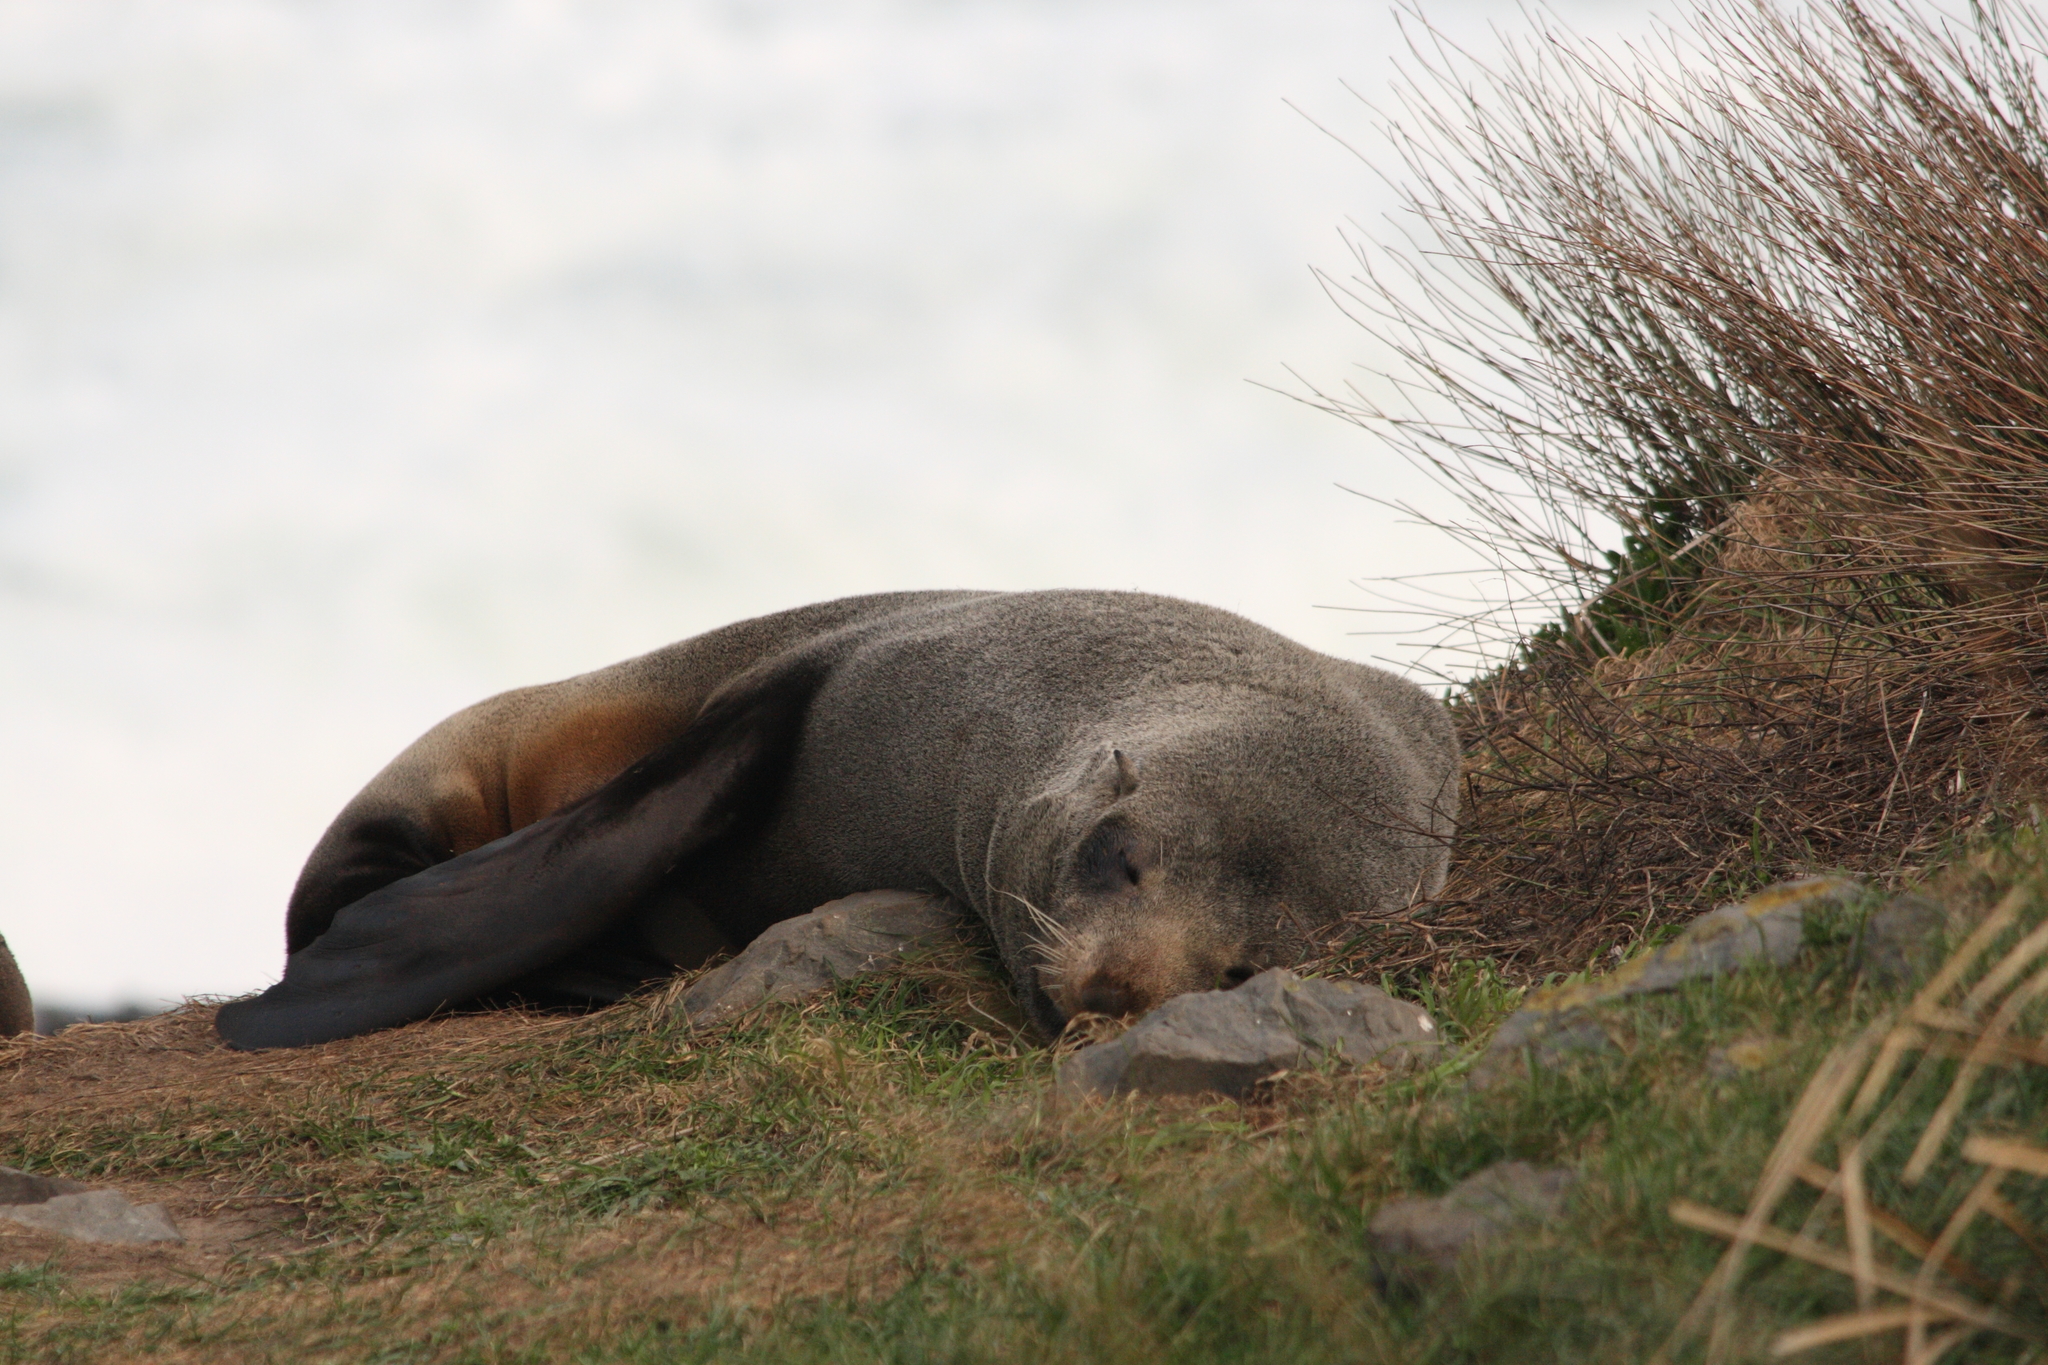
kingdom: Animalia
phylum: Chordata
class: Mammalia
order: Carnivora
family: Otariidae
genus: Arctocephalus
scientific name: Arctocephalus forsteri
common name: New zealand fur seal
